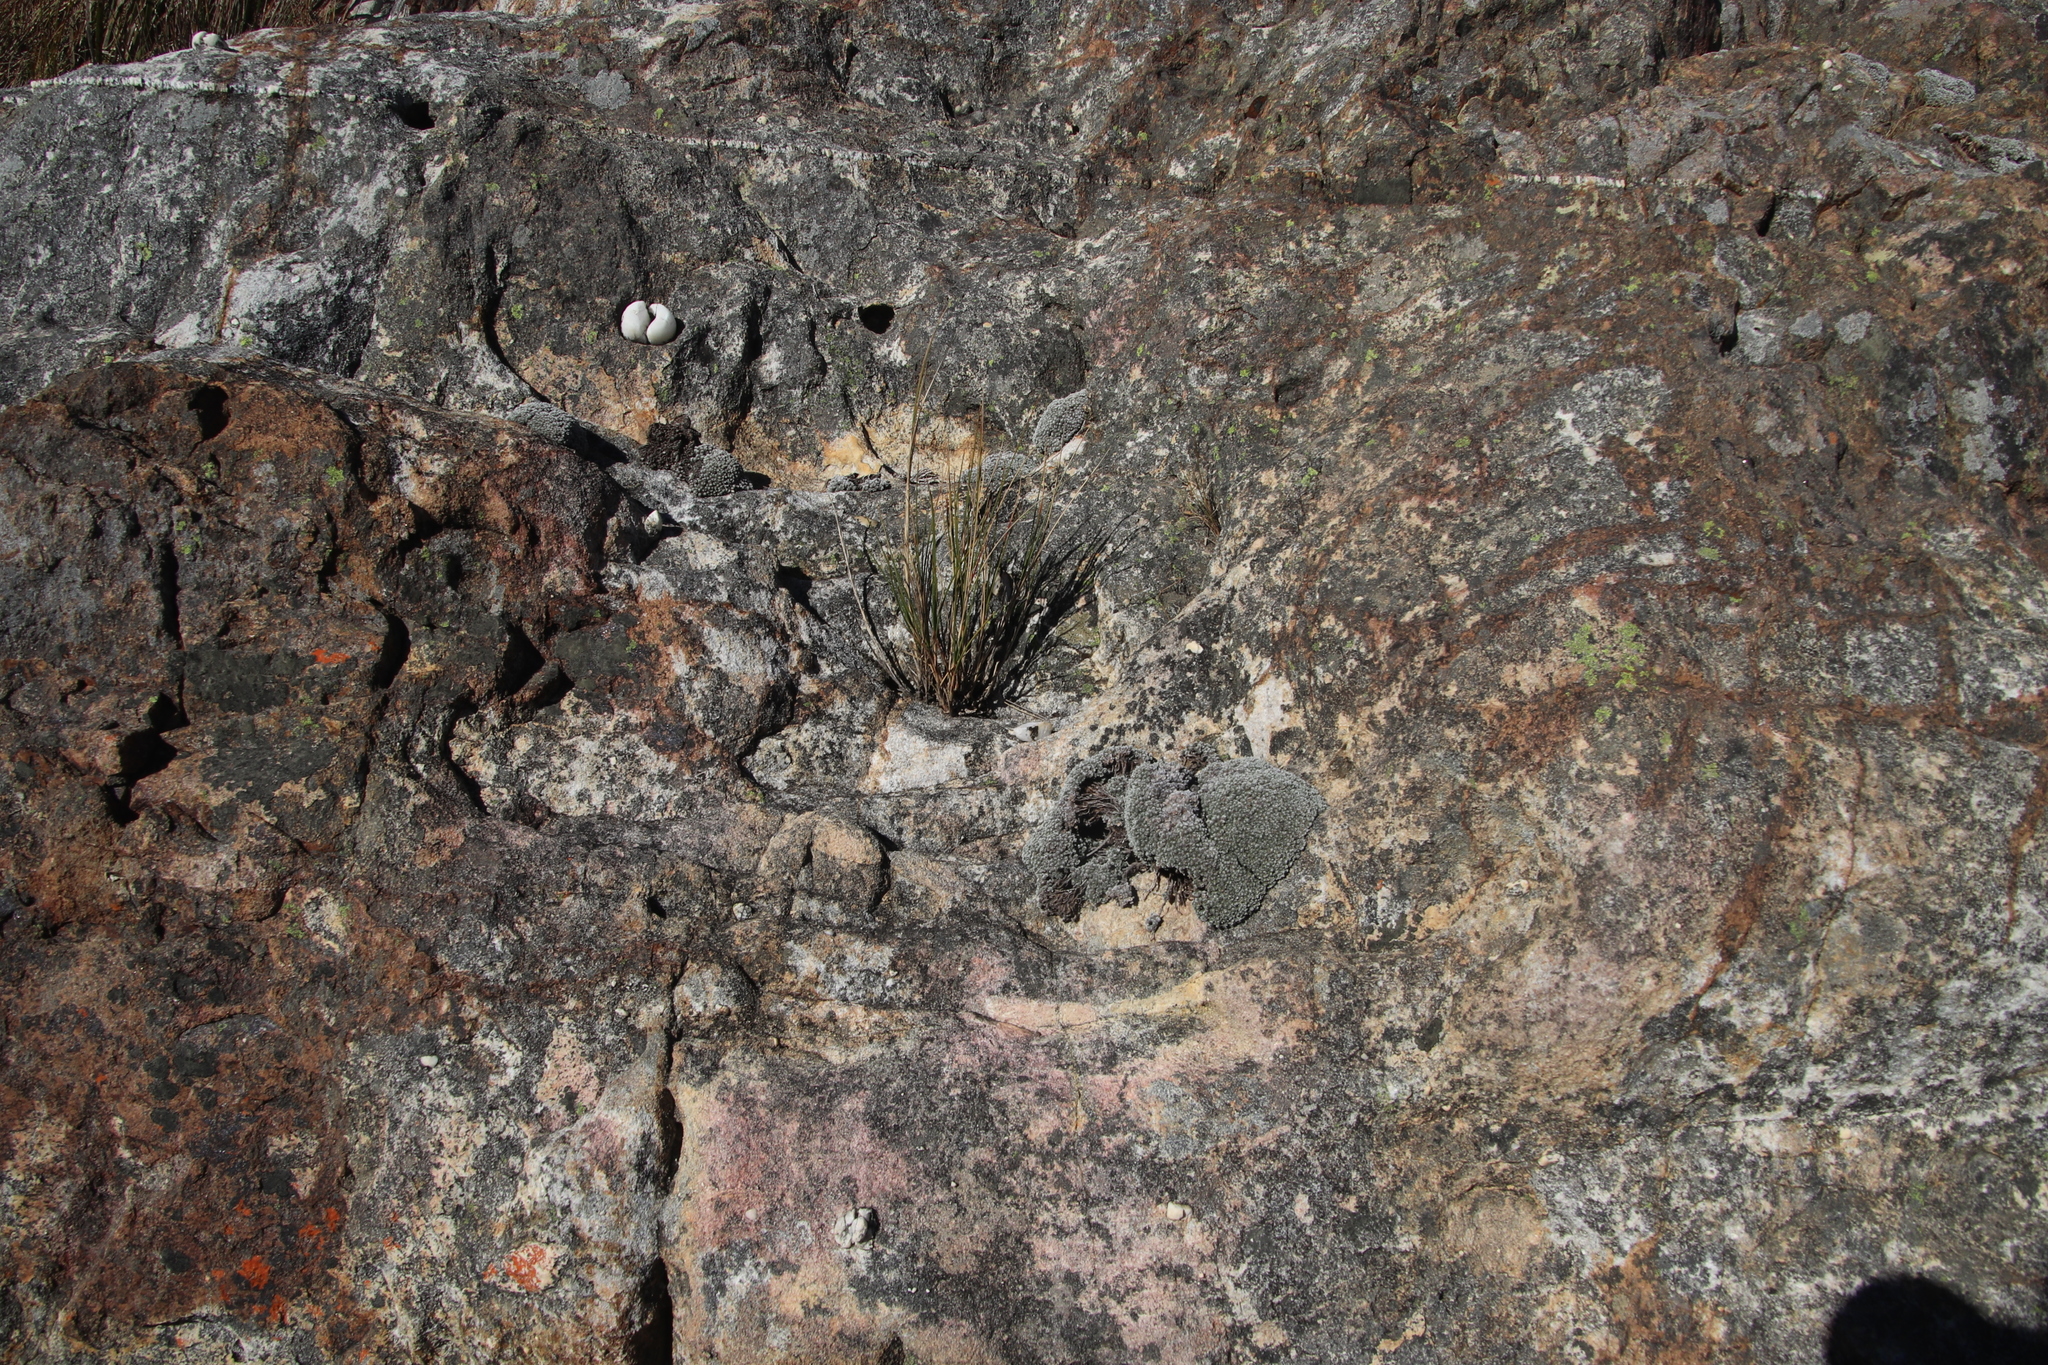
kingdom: Plantae
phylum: Tracheophyta
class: Magnoliopsida
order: Asterales
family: Asteraceae
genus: Muscosomorphe
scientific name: Muscosomorphe aretioides
